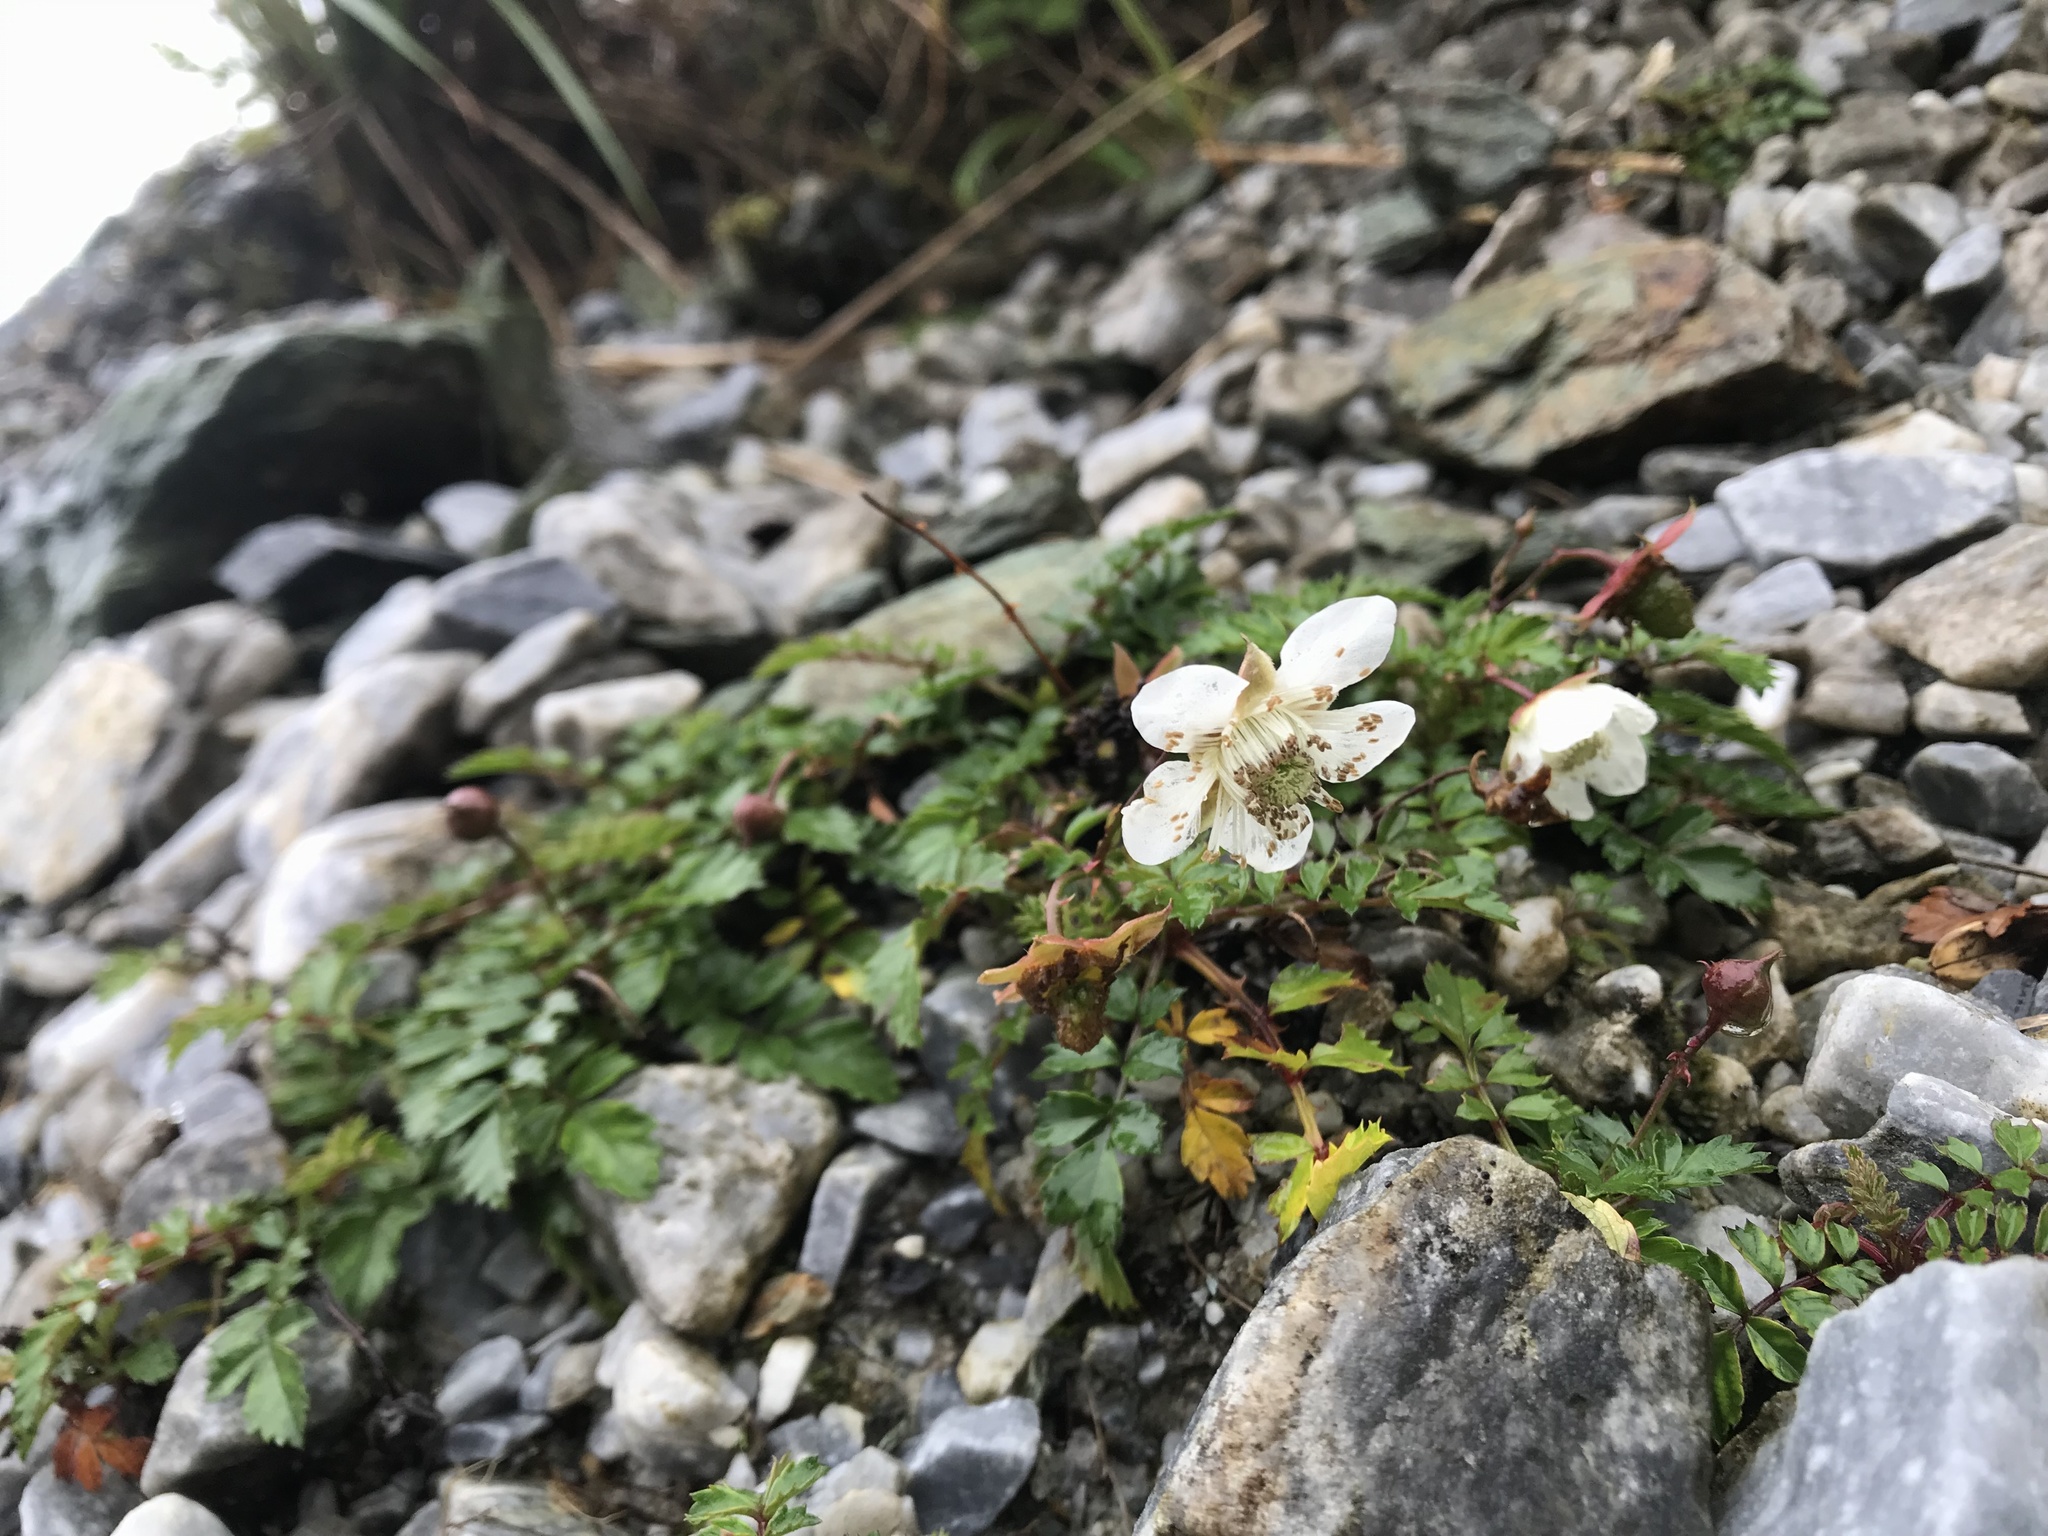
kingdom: Plantae
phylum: Tracheophyta
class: Magnoliopsida
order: Rosales
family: Rosaceae
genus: Rubus
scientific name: Rubus taiwanicola
